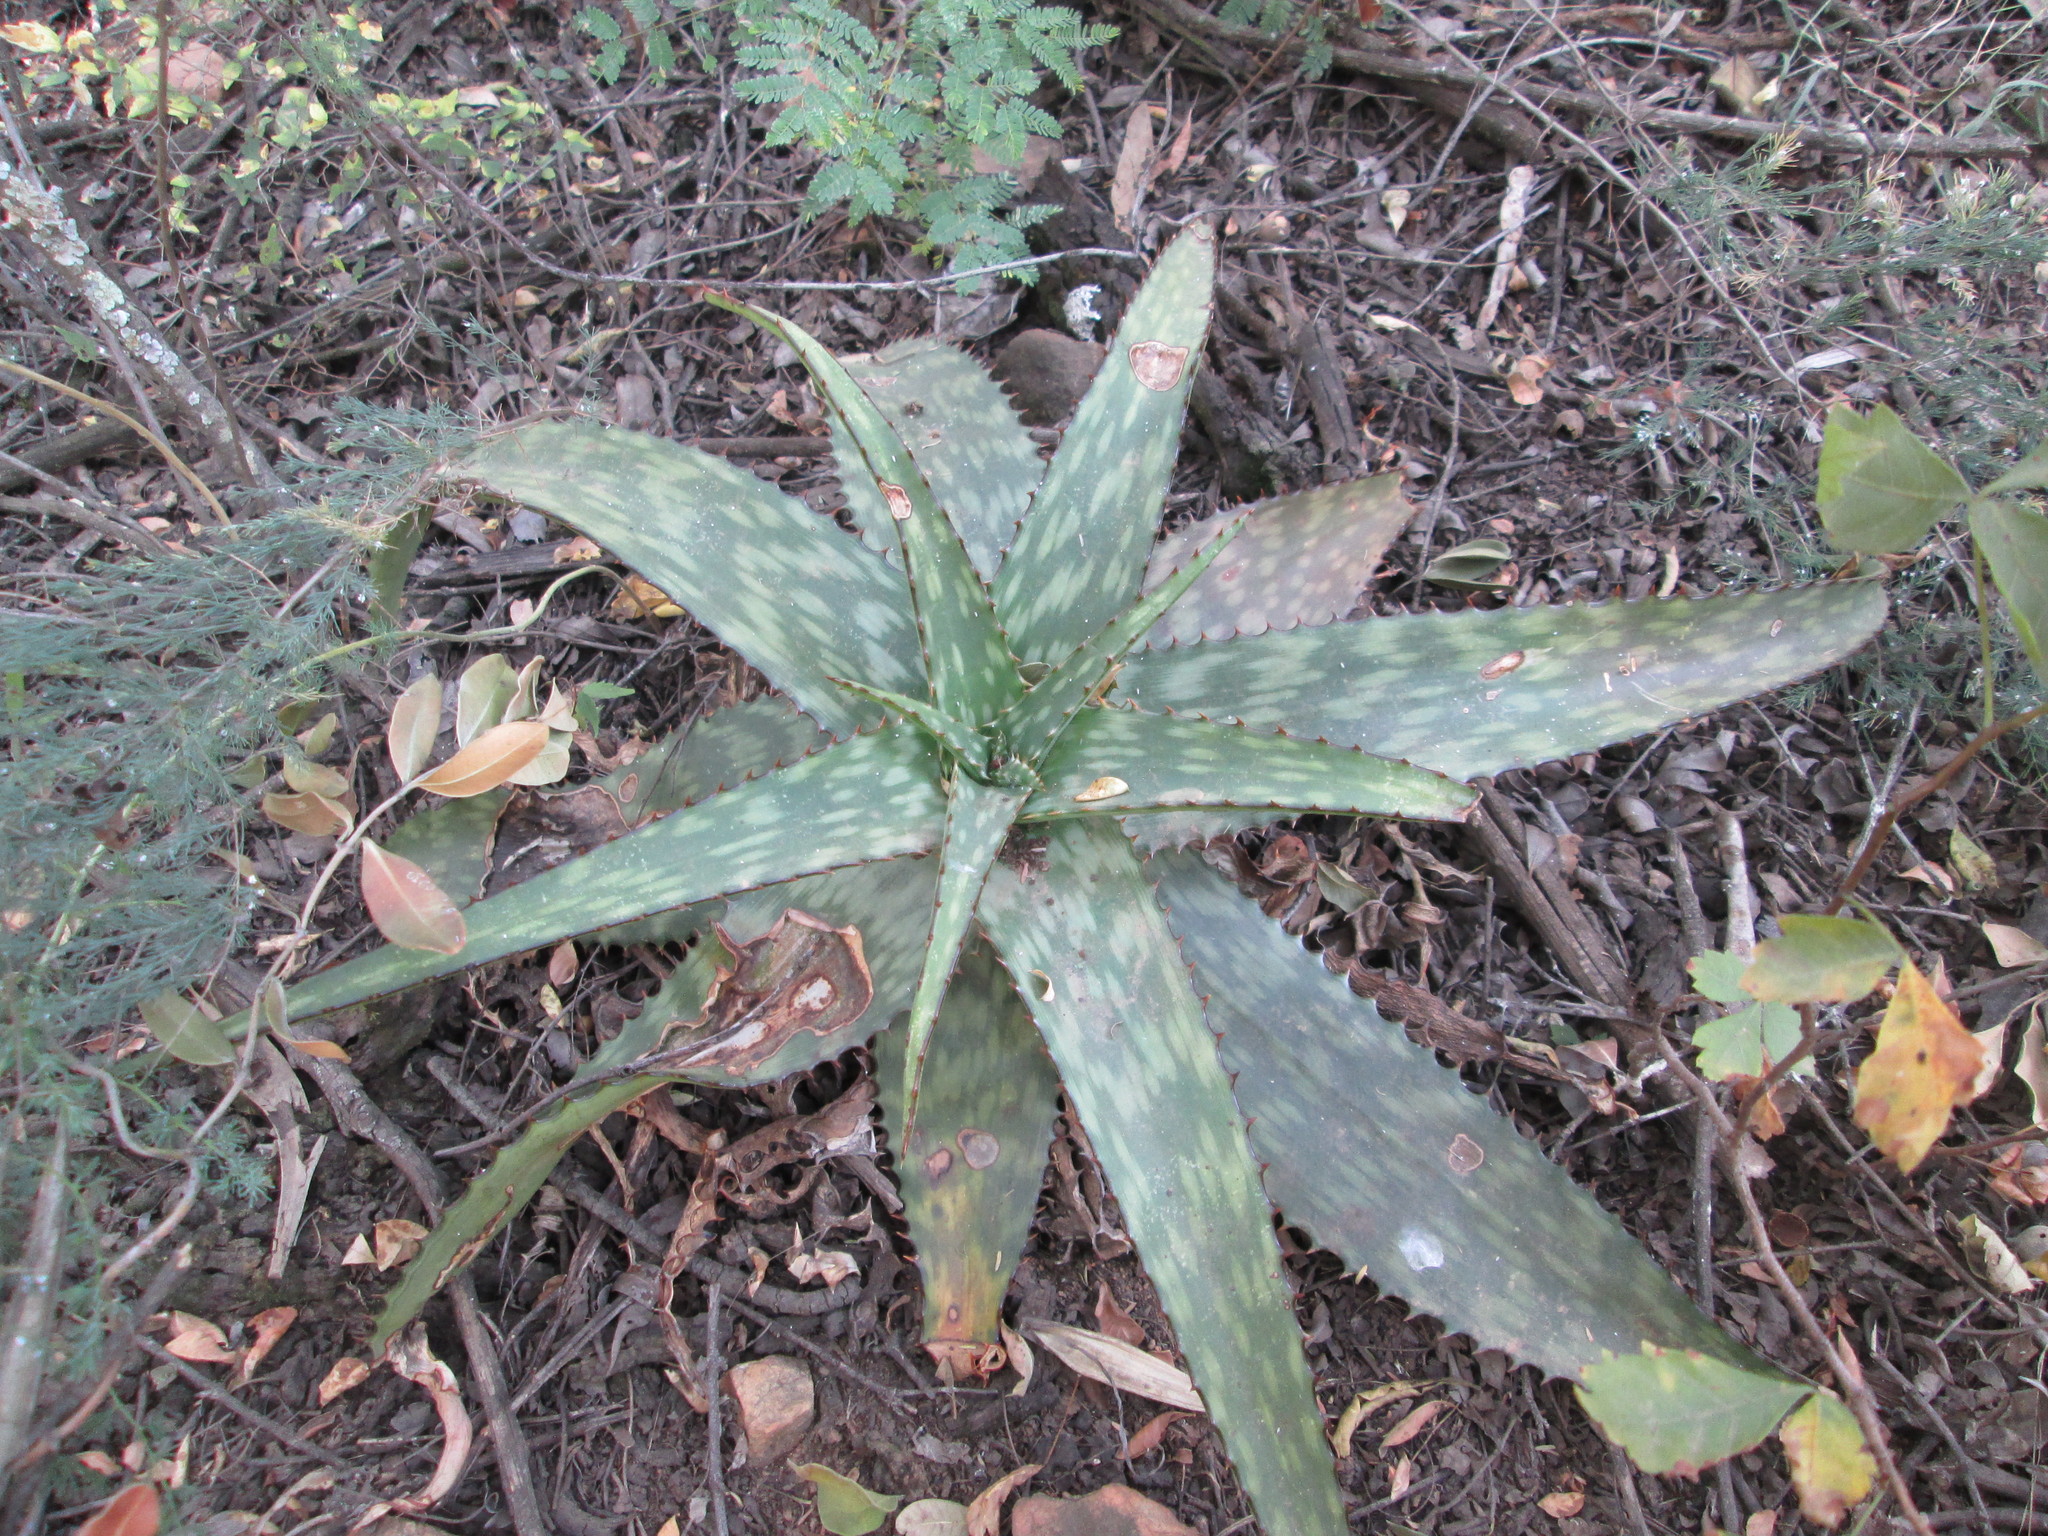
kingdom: Plantae
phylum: Tracheophyta
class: Liliopsida
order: Asparagales
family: Asphodelaceae
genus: Aloe
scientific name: Aloe davyana
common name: Spotted aloe
